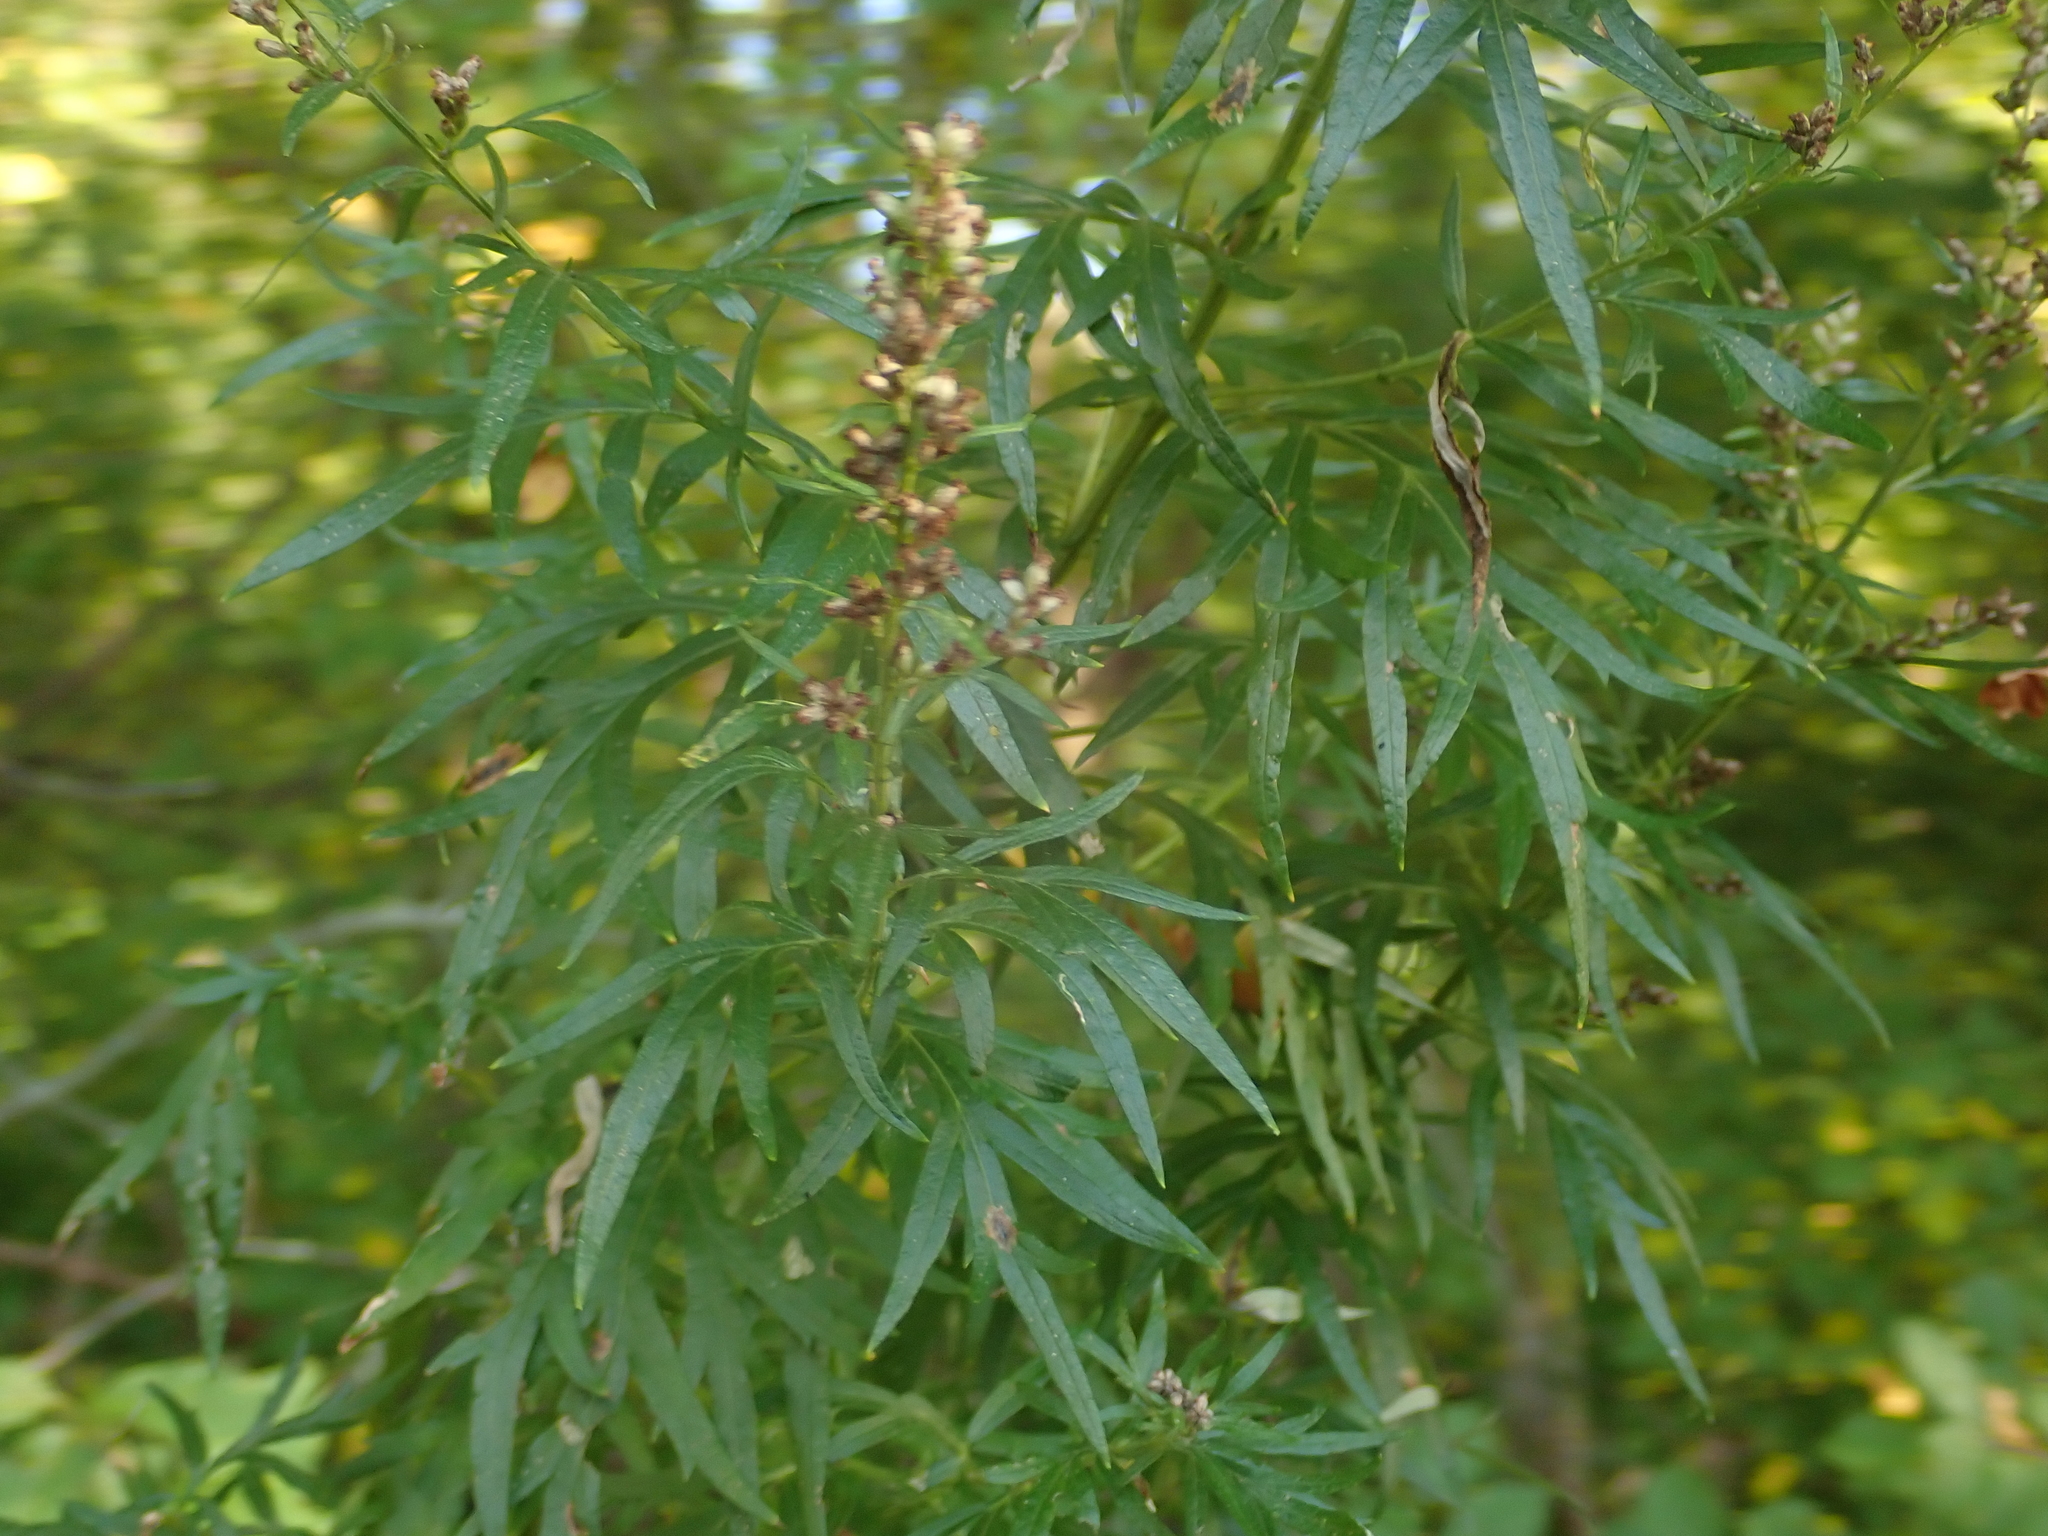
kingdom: Plantae
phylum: Tracheophyta
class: Magnoliopsida
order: Asterales
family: Asteraceae
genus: Artemisia
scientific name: Artemisia vulgaris
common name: Mugwort
